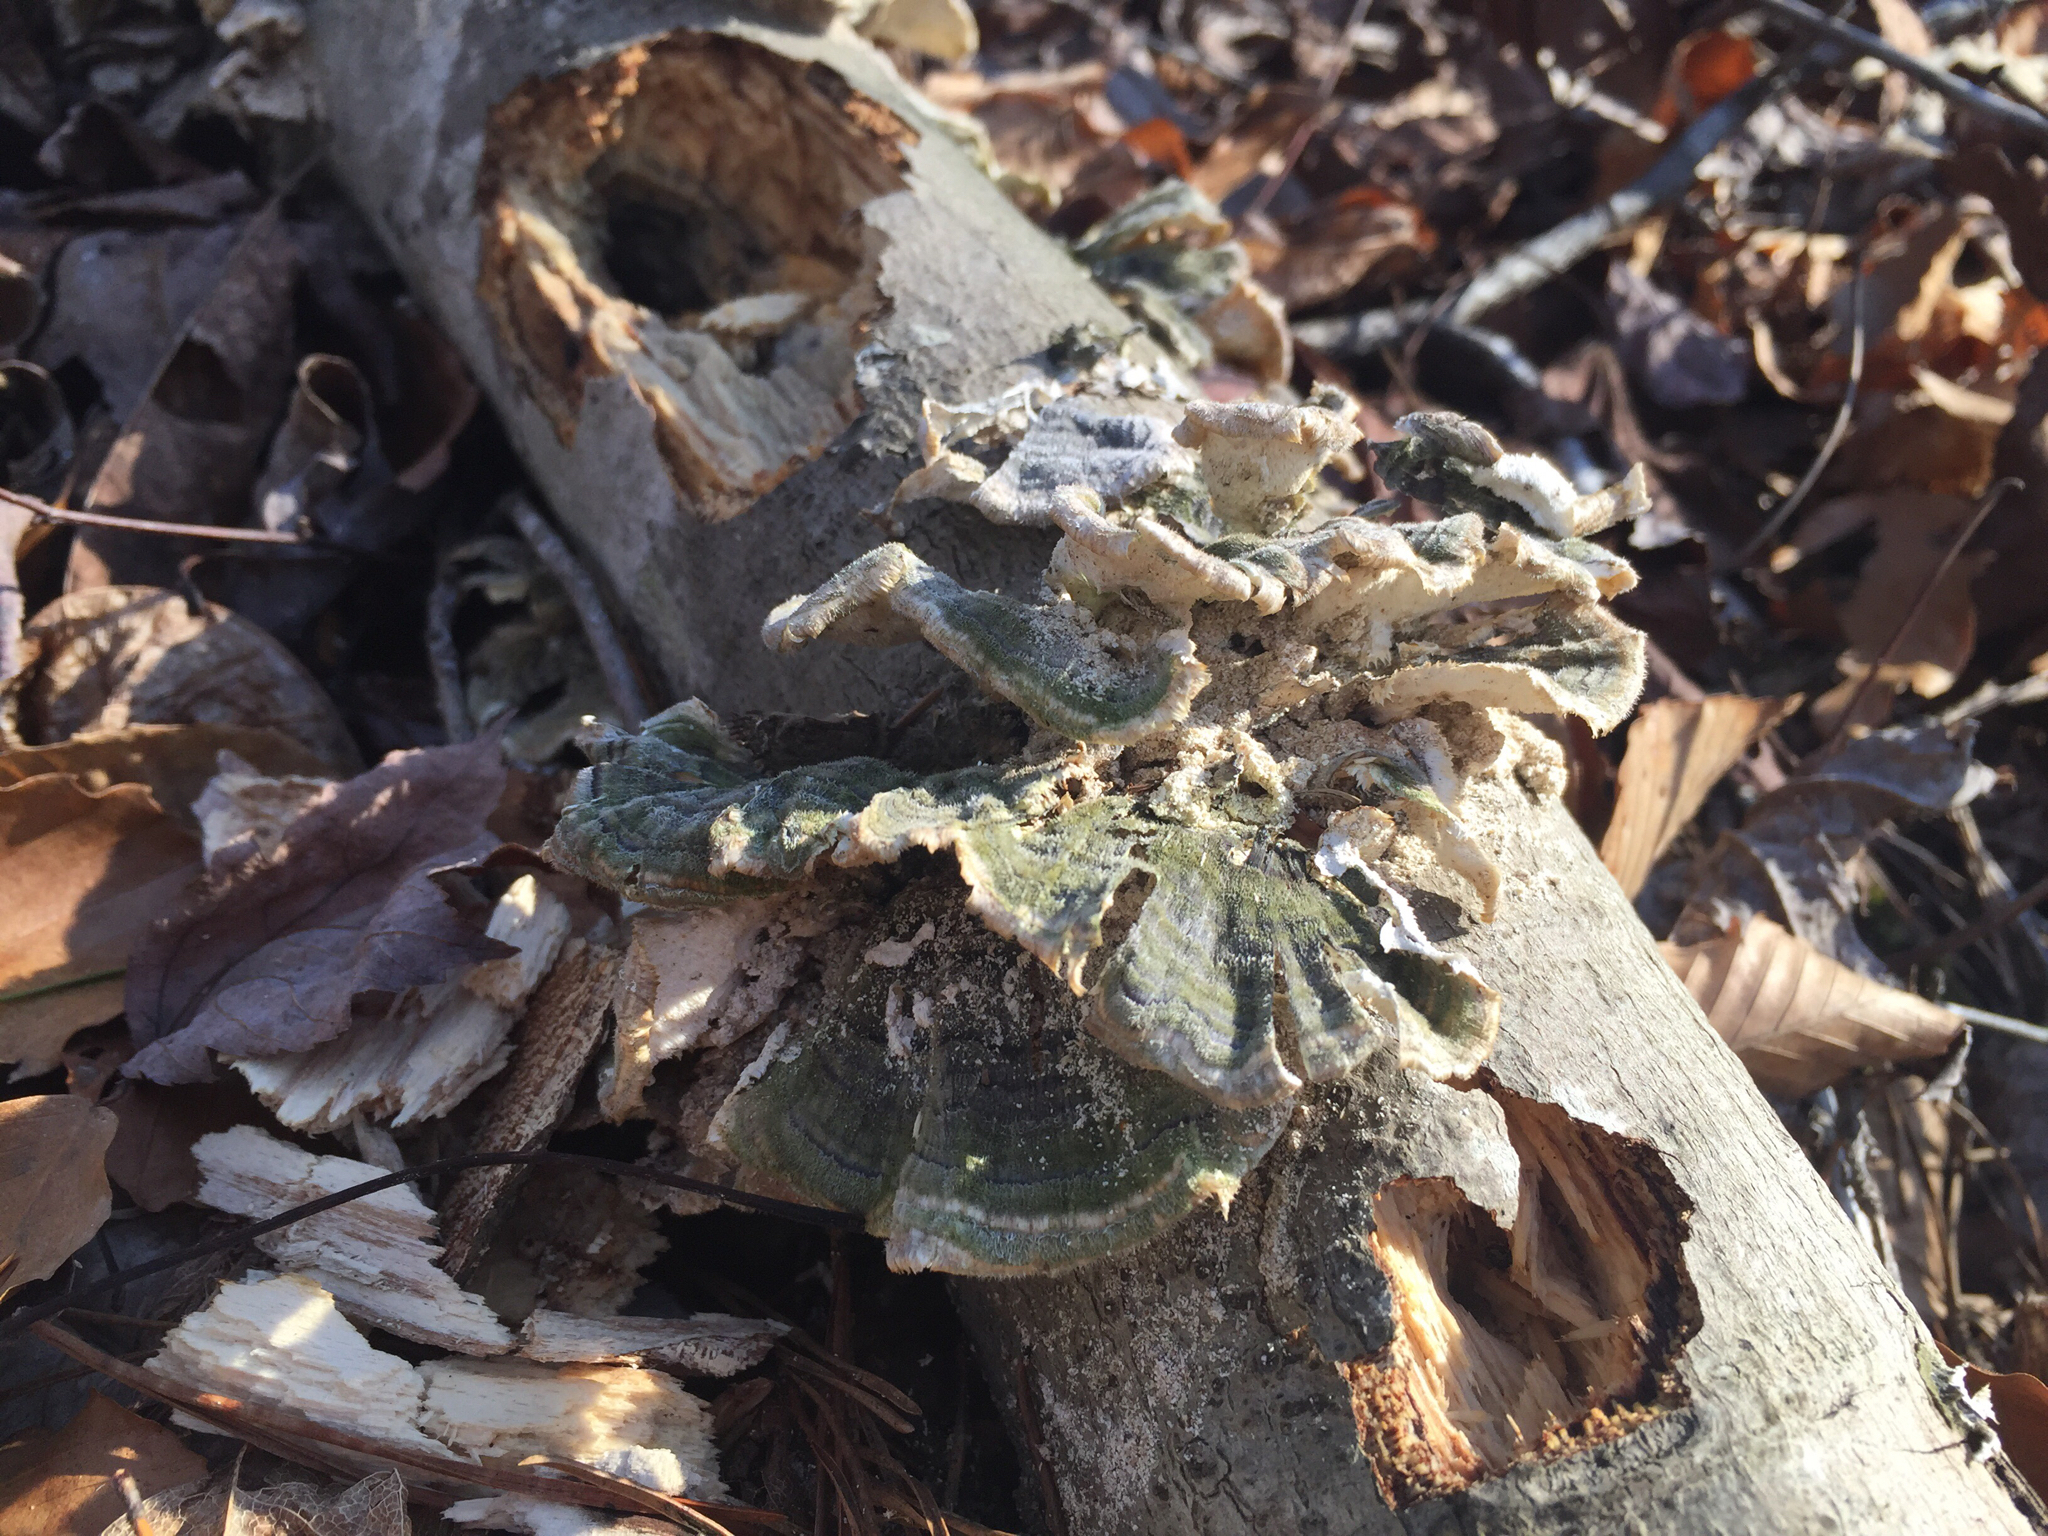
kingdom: Fungi
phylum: Basidiomycota
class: Agaricomycetes
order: Polyporales
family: Polyporaceae
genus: Trametes
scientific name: Trametes versicolor
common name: Turkeytail
